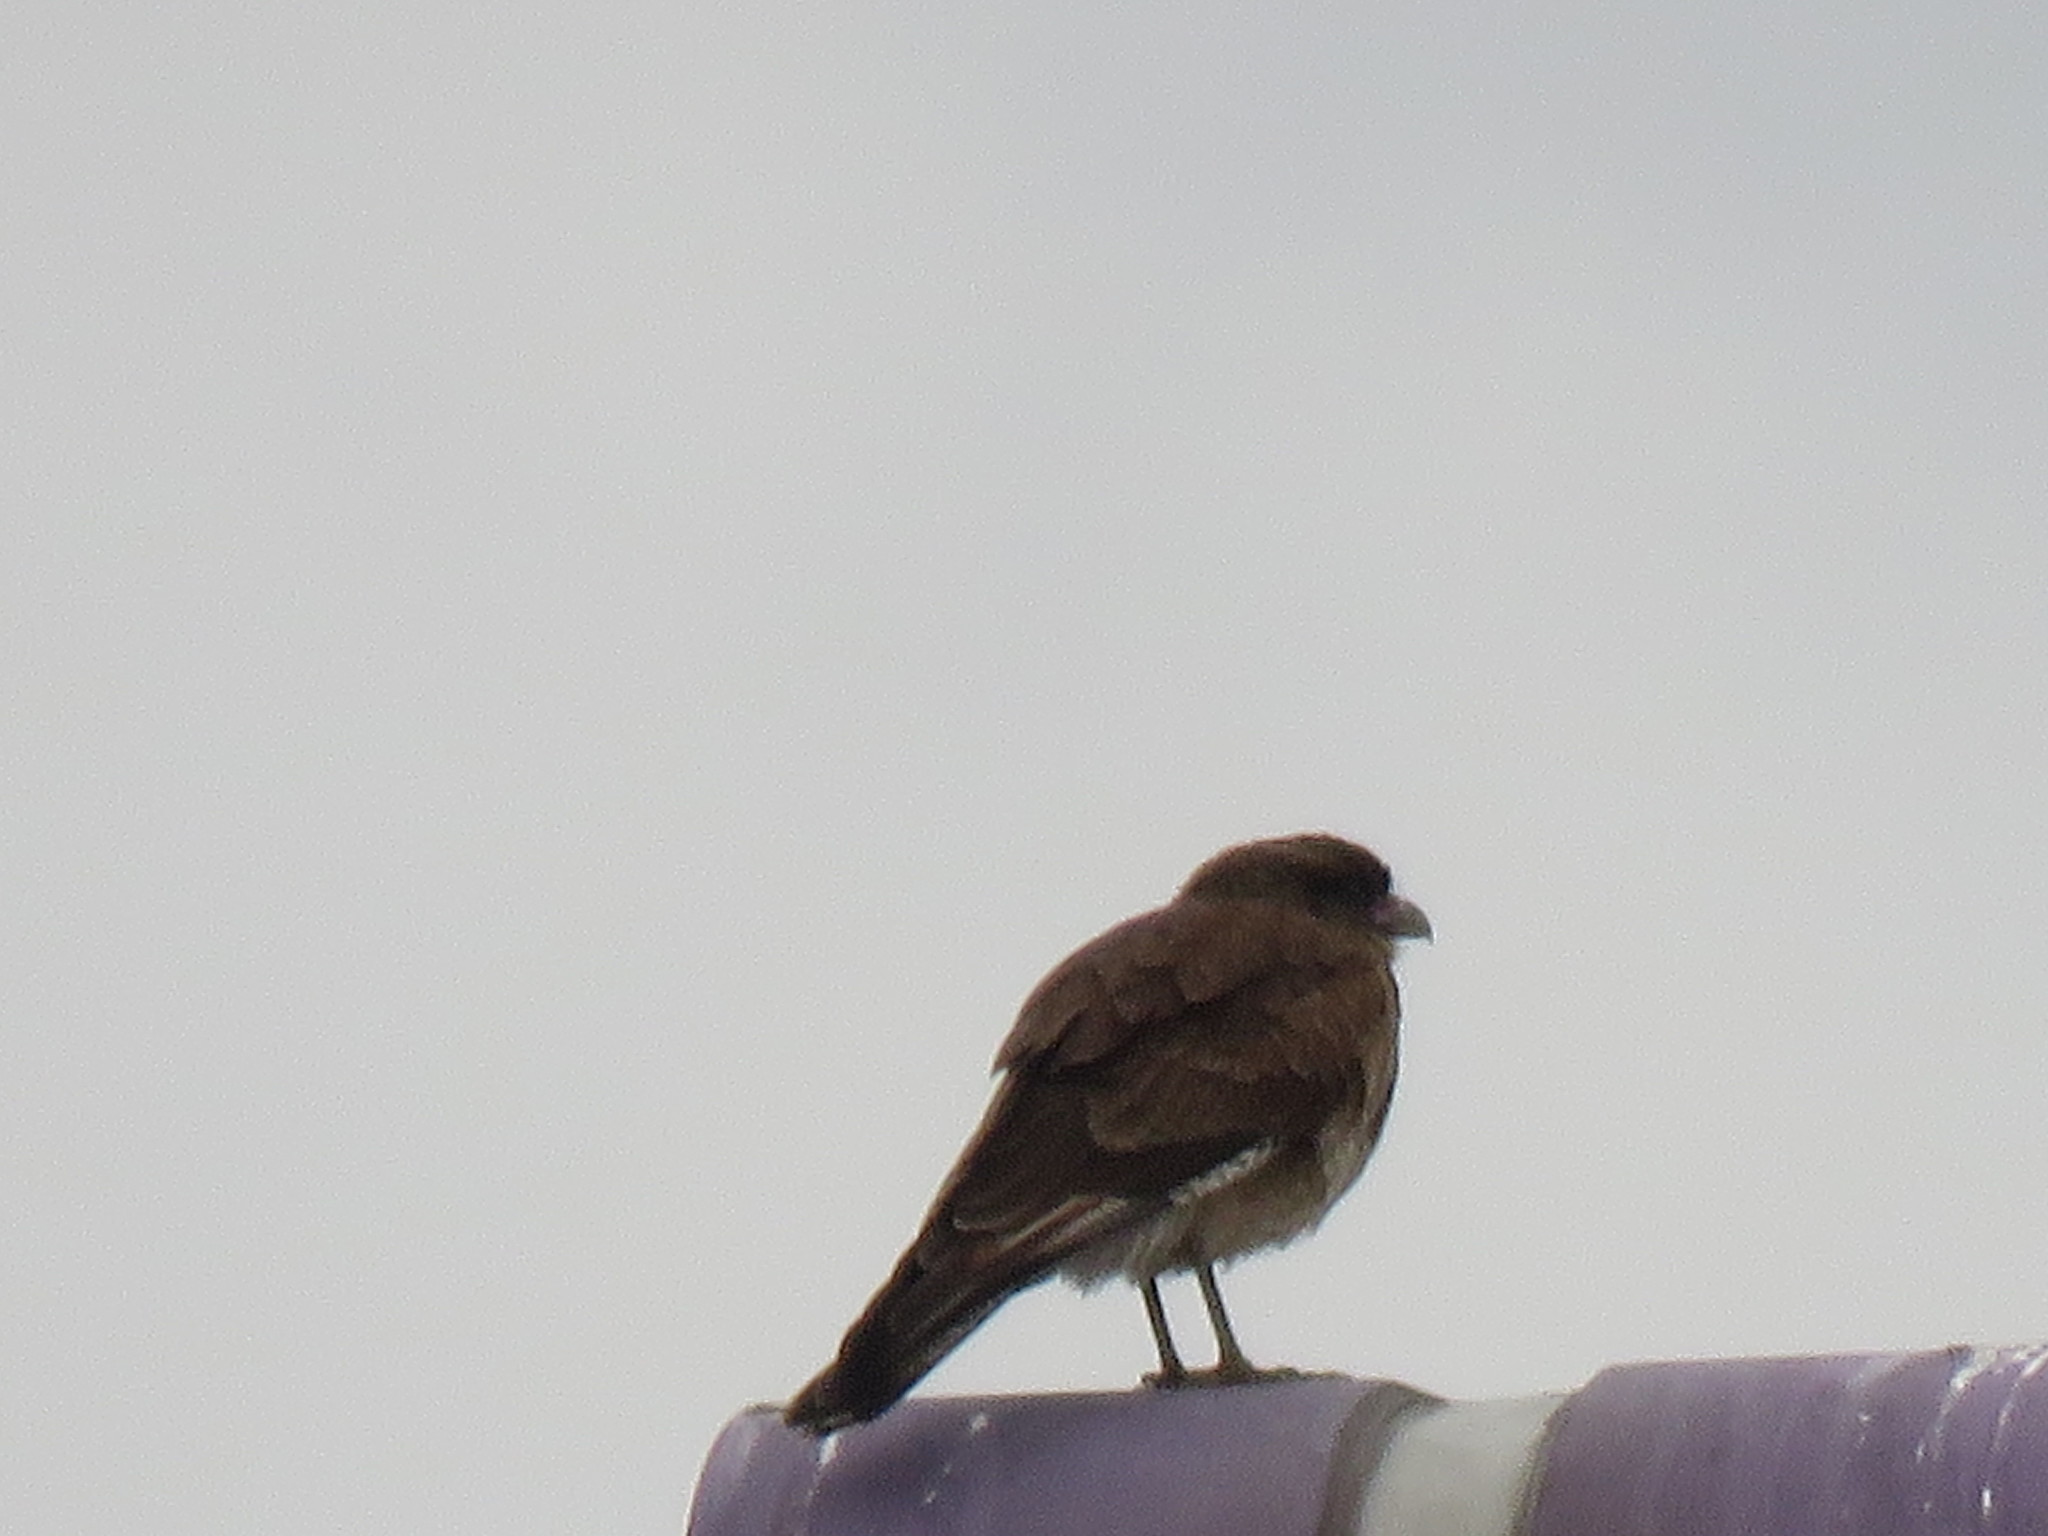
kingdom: Animalia
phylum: Chordata
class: Aves
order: Falconiformes
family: Falconidae
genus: Daptrius
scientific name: Daptrius
